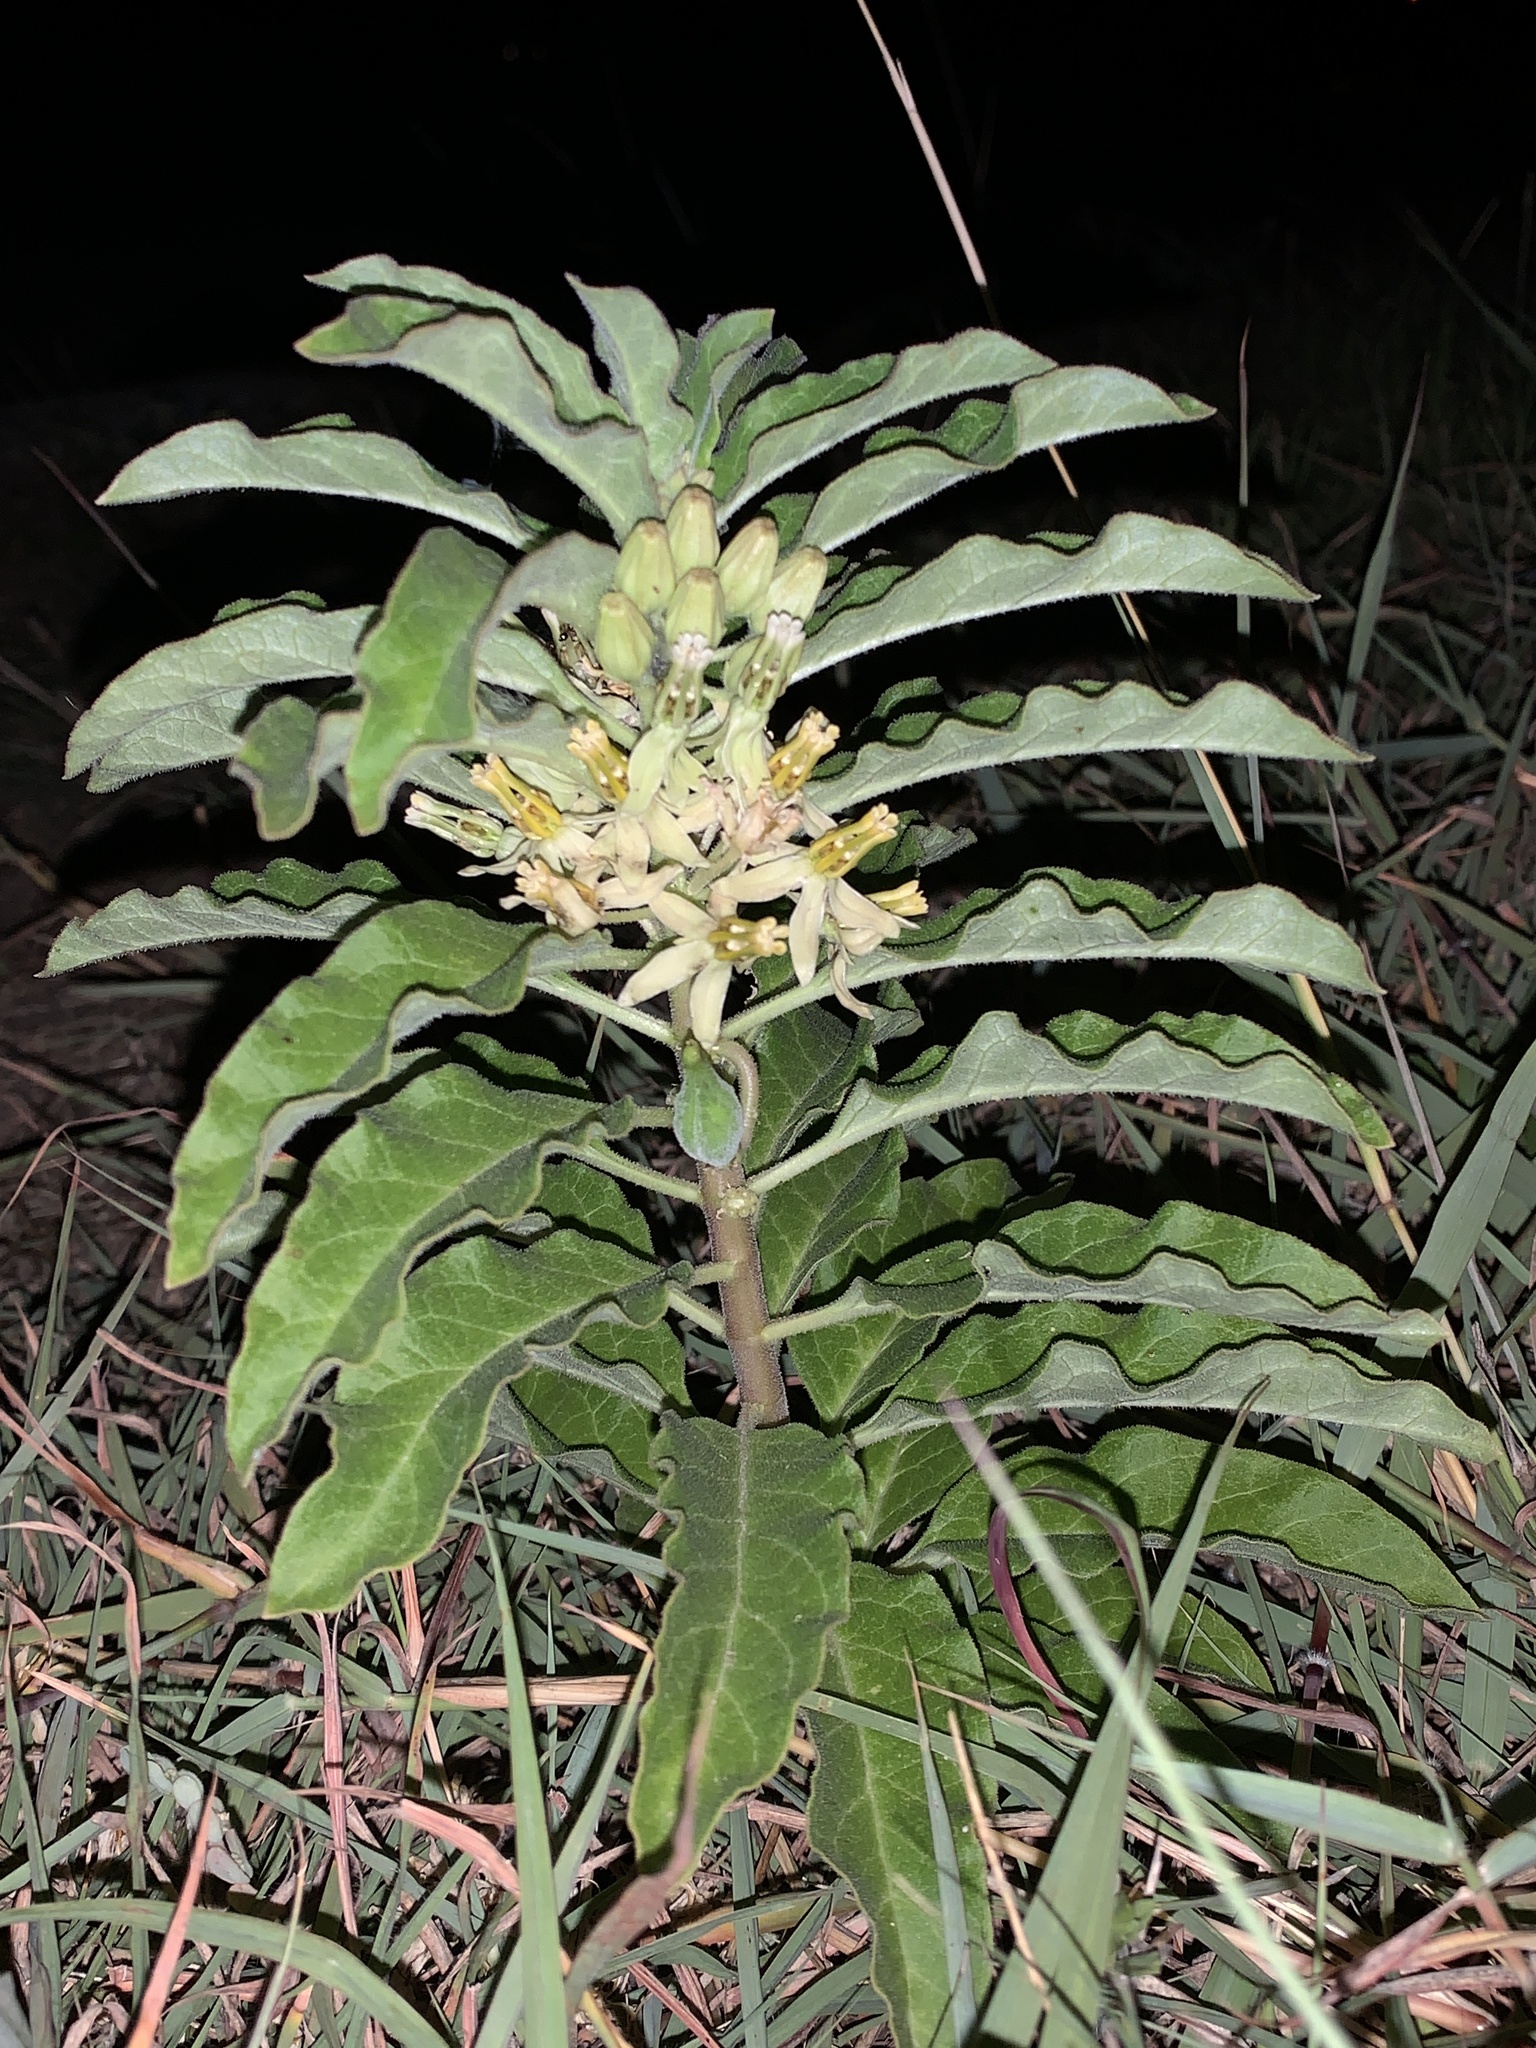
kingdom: Plantae
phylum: Tracheophyta
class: Magnoliopsida
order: Gentianales
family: Apocynaceae
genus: Asclepias
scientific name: Asclepias oenotheroides
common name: Zizotes milkweed
